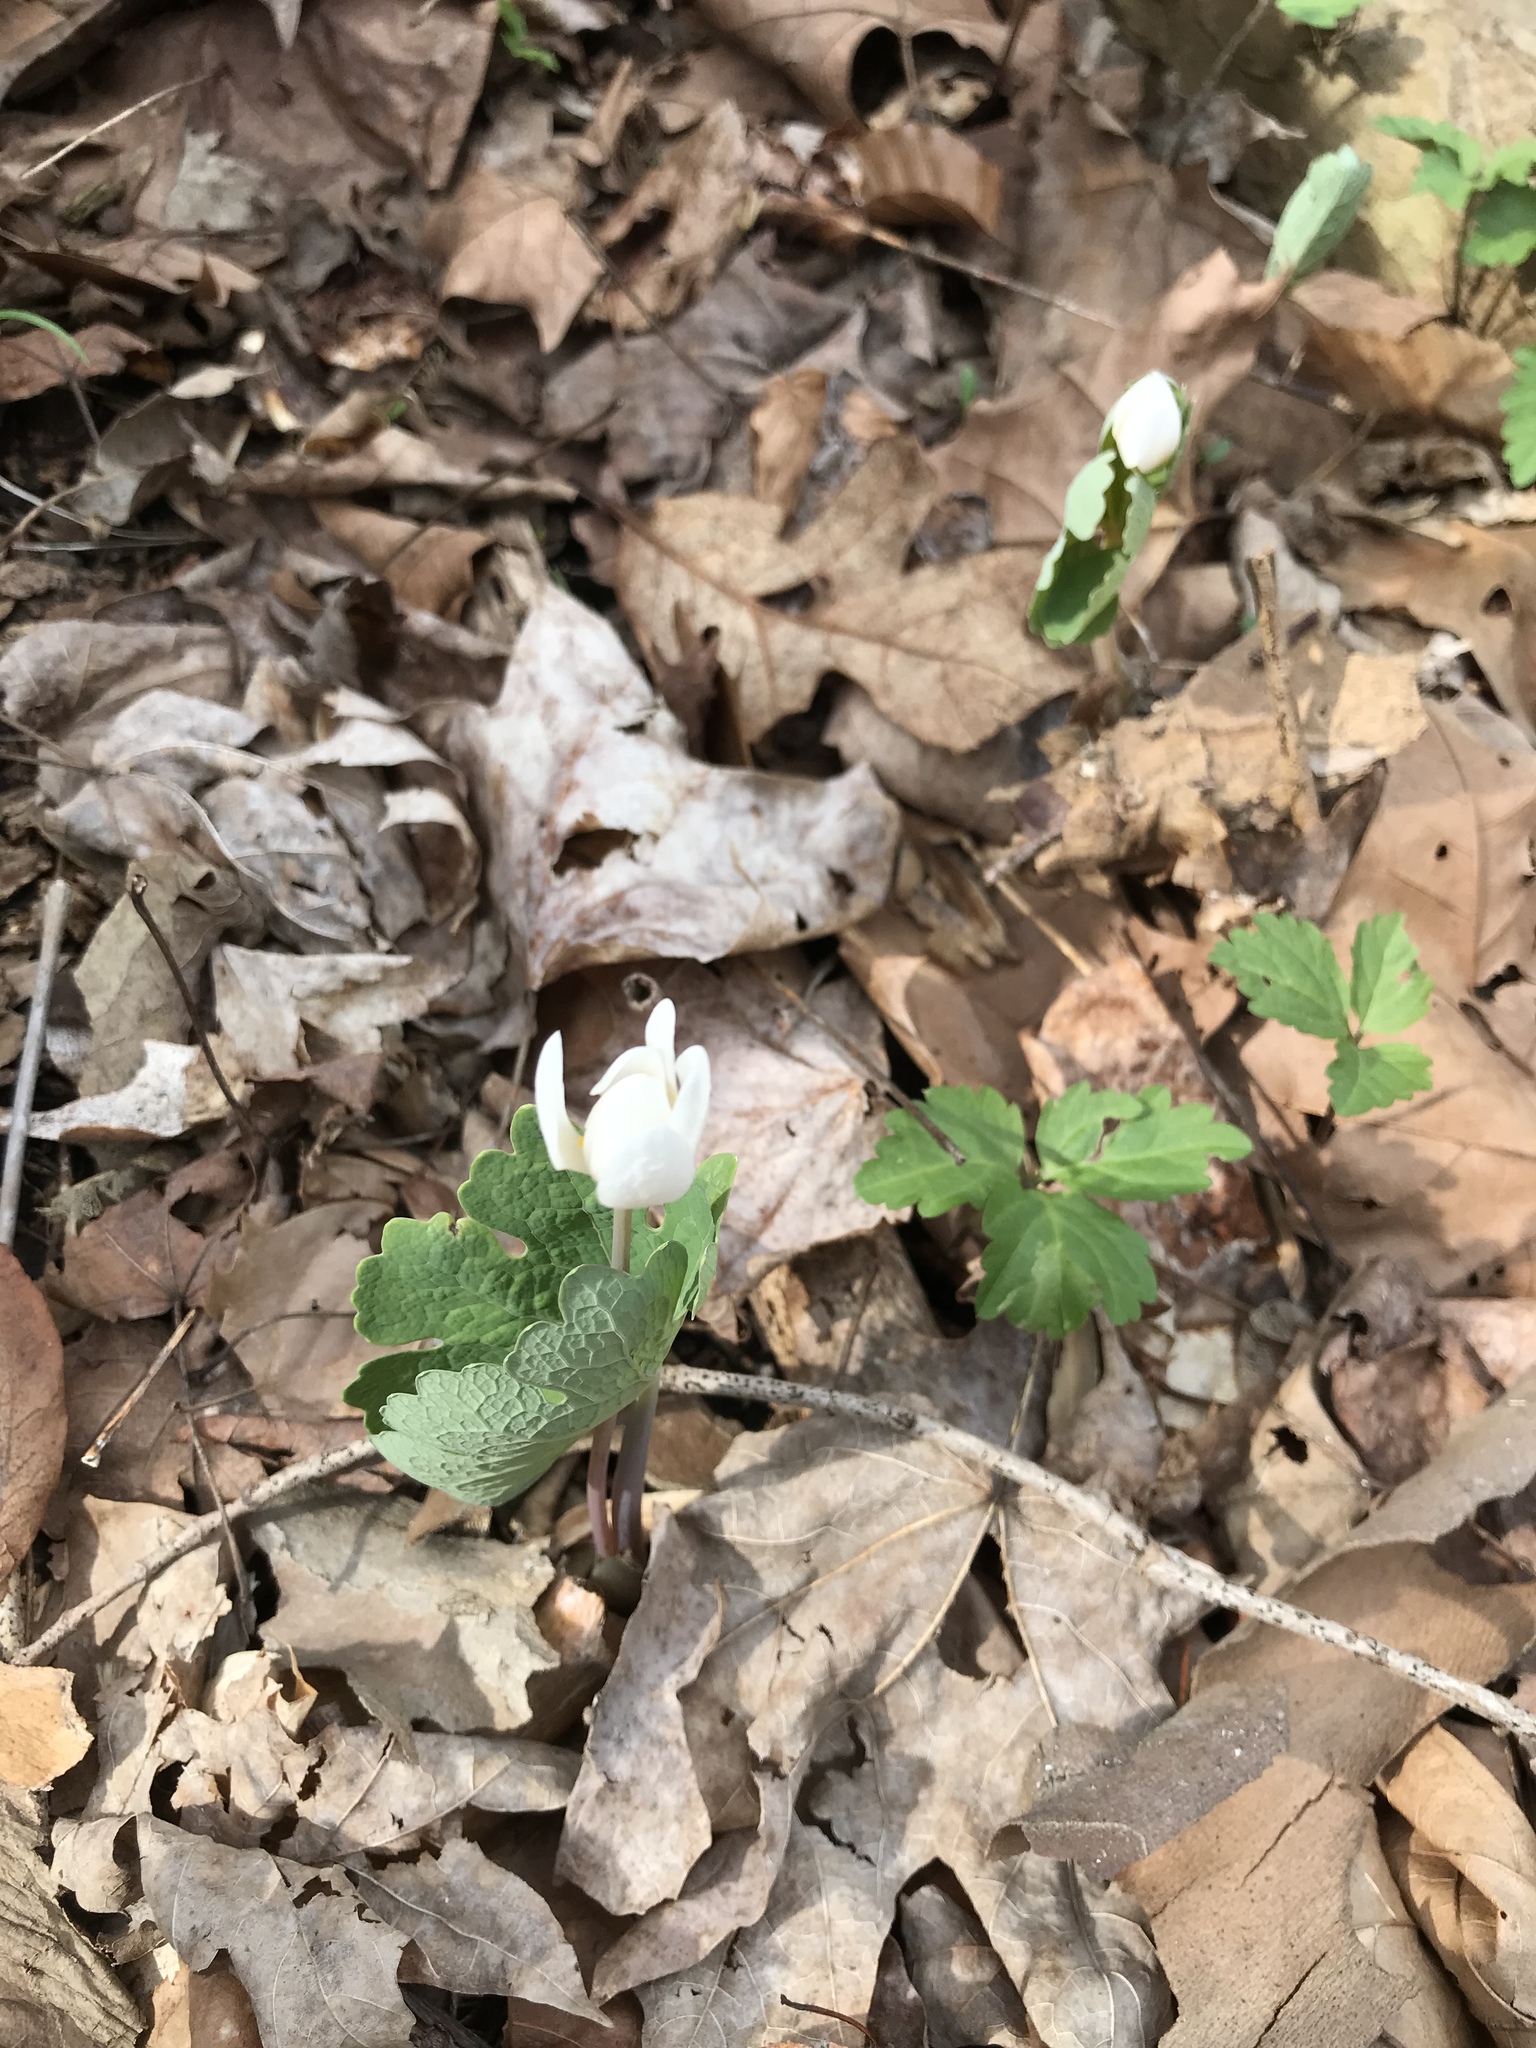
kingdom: Plantae
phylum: Tracheophyta
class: Magnoliopsida
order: Ranunculales
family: Papaveraceae
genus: Sanguinaria
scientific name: Sanguinaria canadensis
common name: Bloodroot
